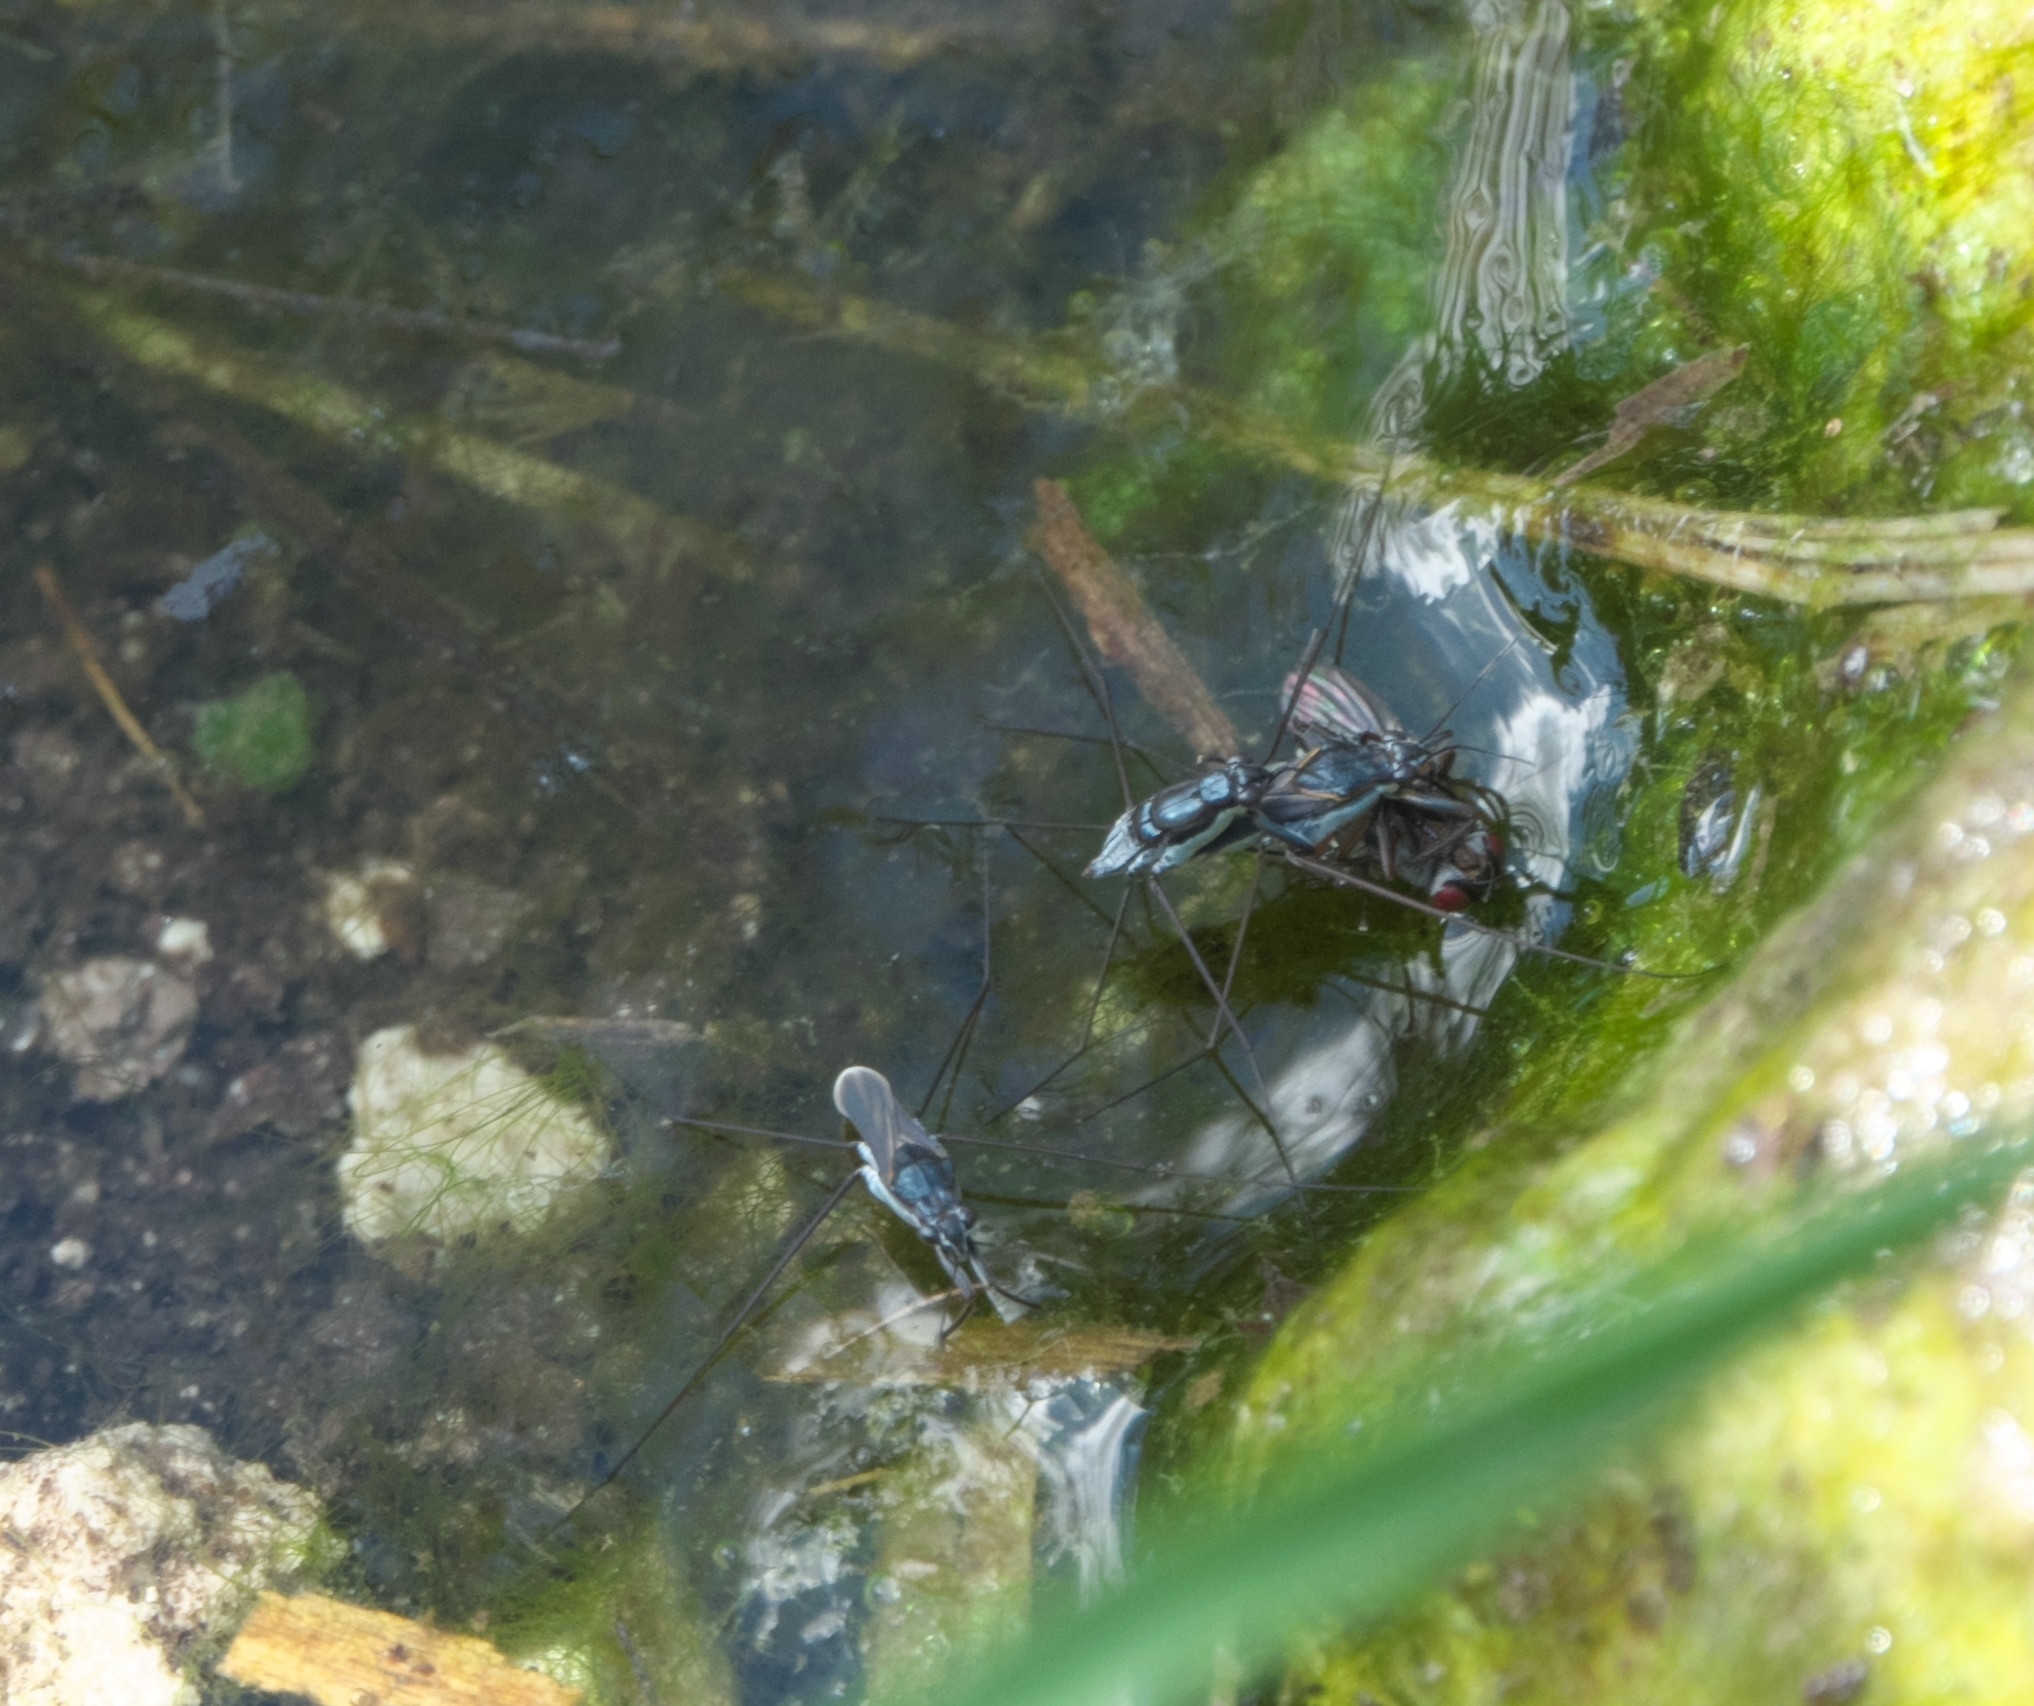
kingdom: Animalia
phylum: Arthropoda
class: Insecta
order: Hemiptera
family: Gerridae
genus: Neogerris
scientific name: Neogerris hesione
